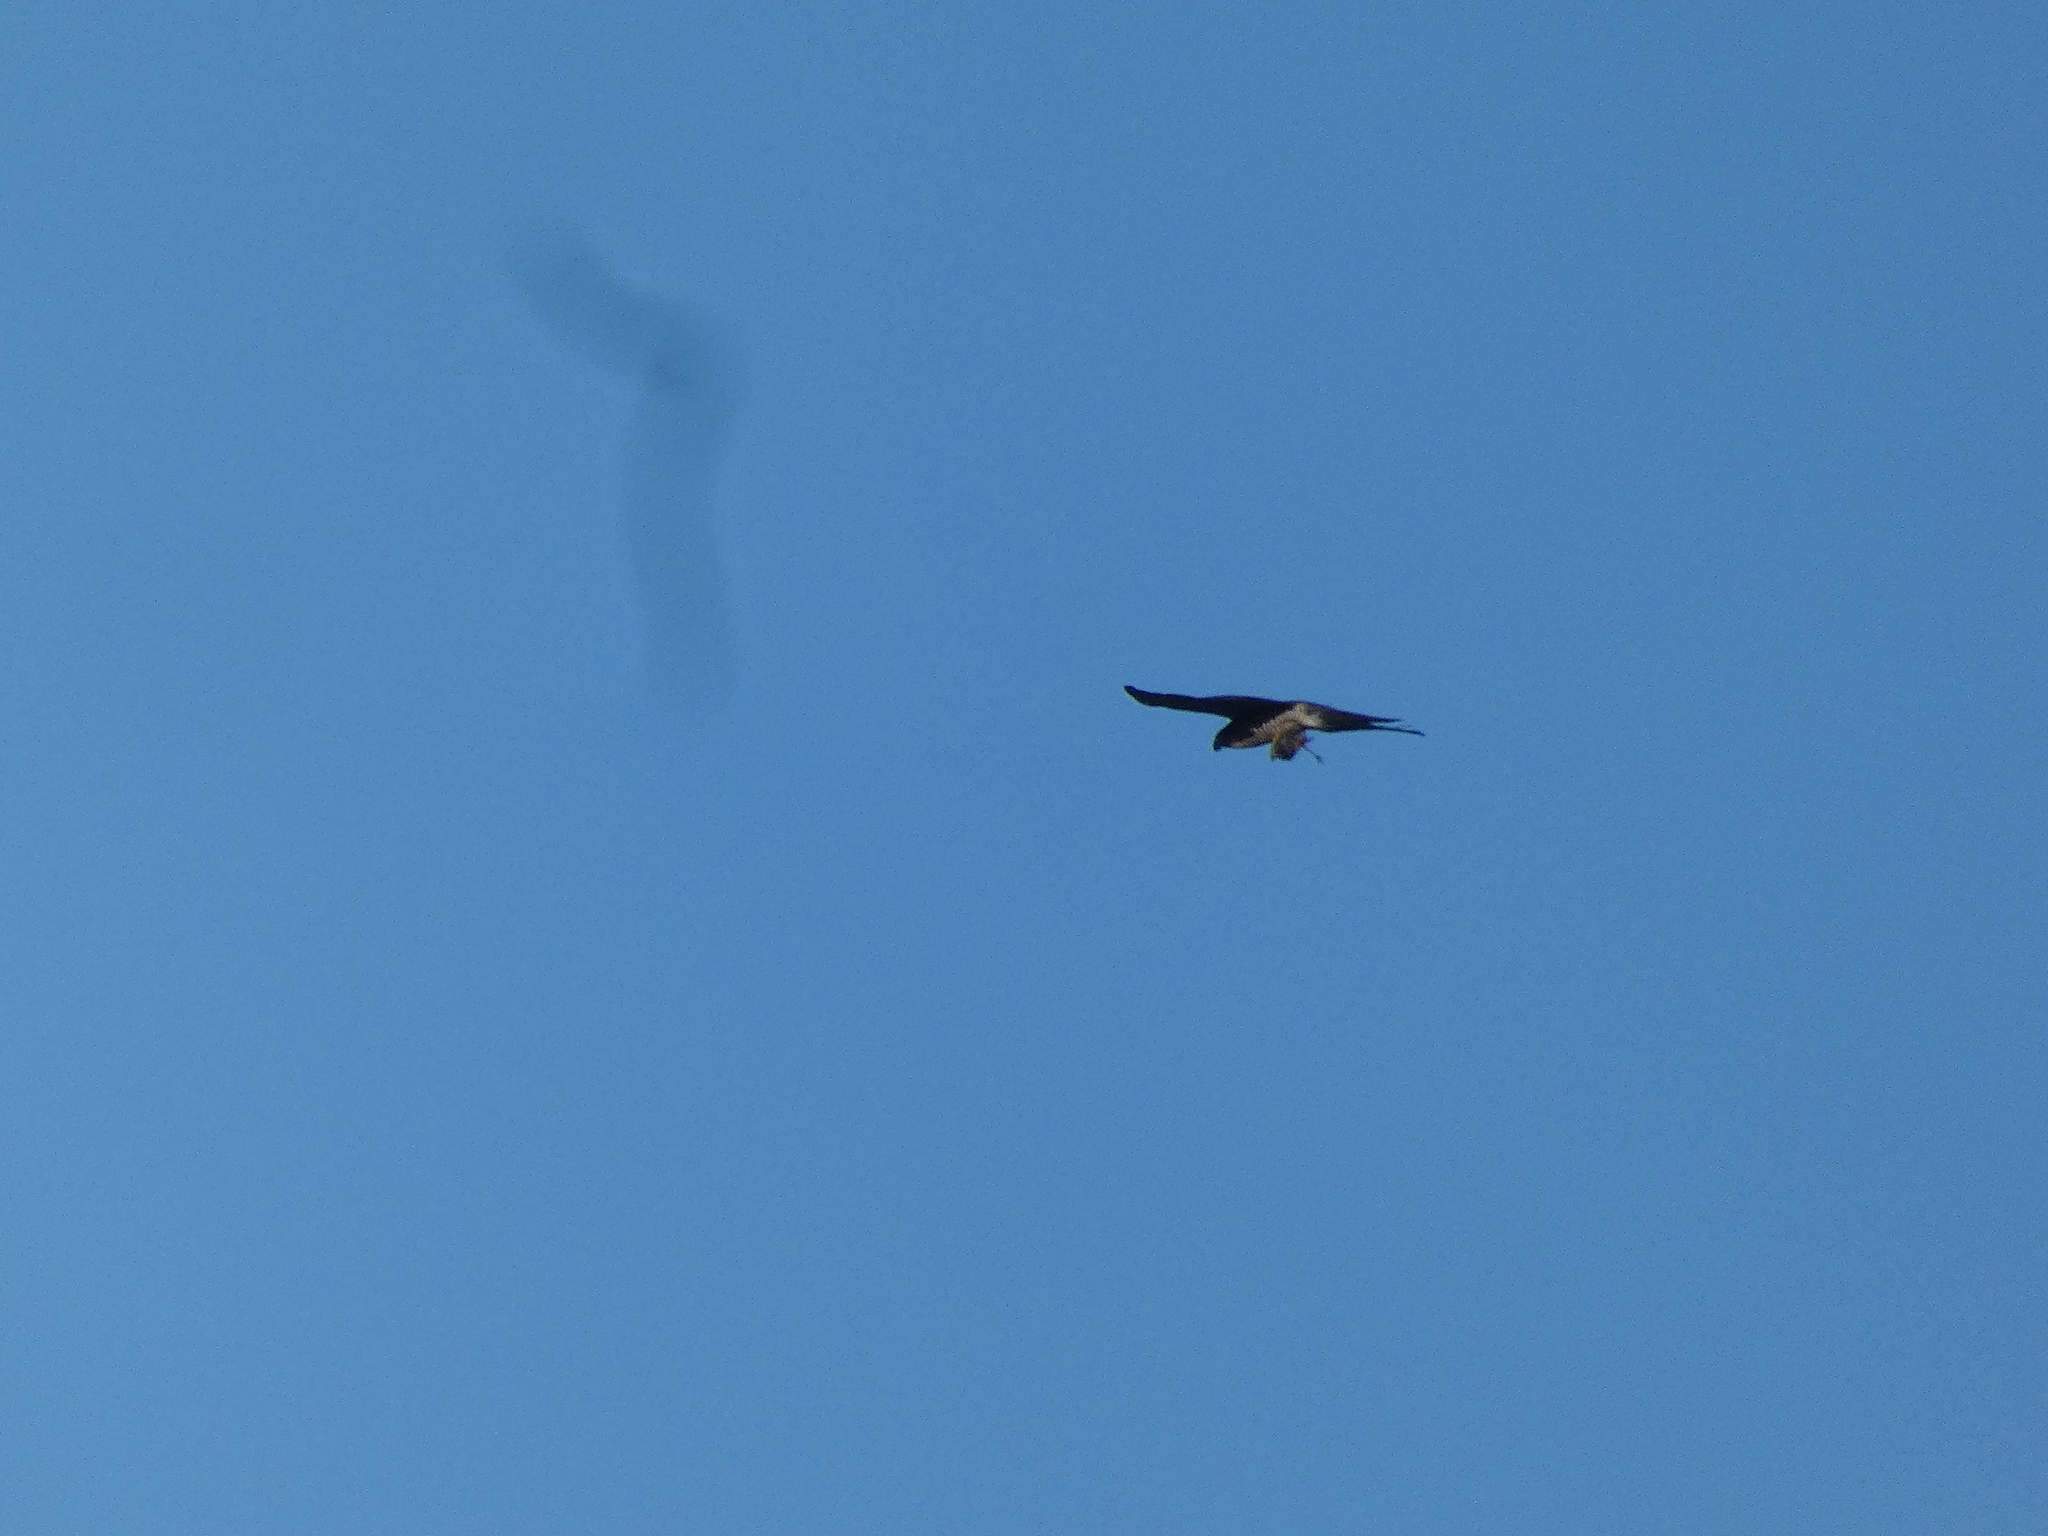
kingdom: Animalia
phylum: Chordata
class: Aves
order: Accipitriformes
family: Accipitridae
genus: Accipiter
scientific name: Accipiter nisus
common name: Eurasian sparrowhawk
